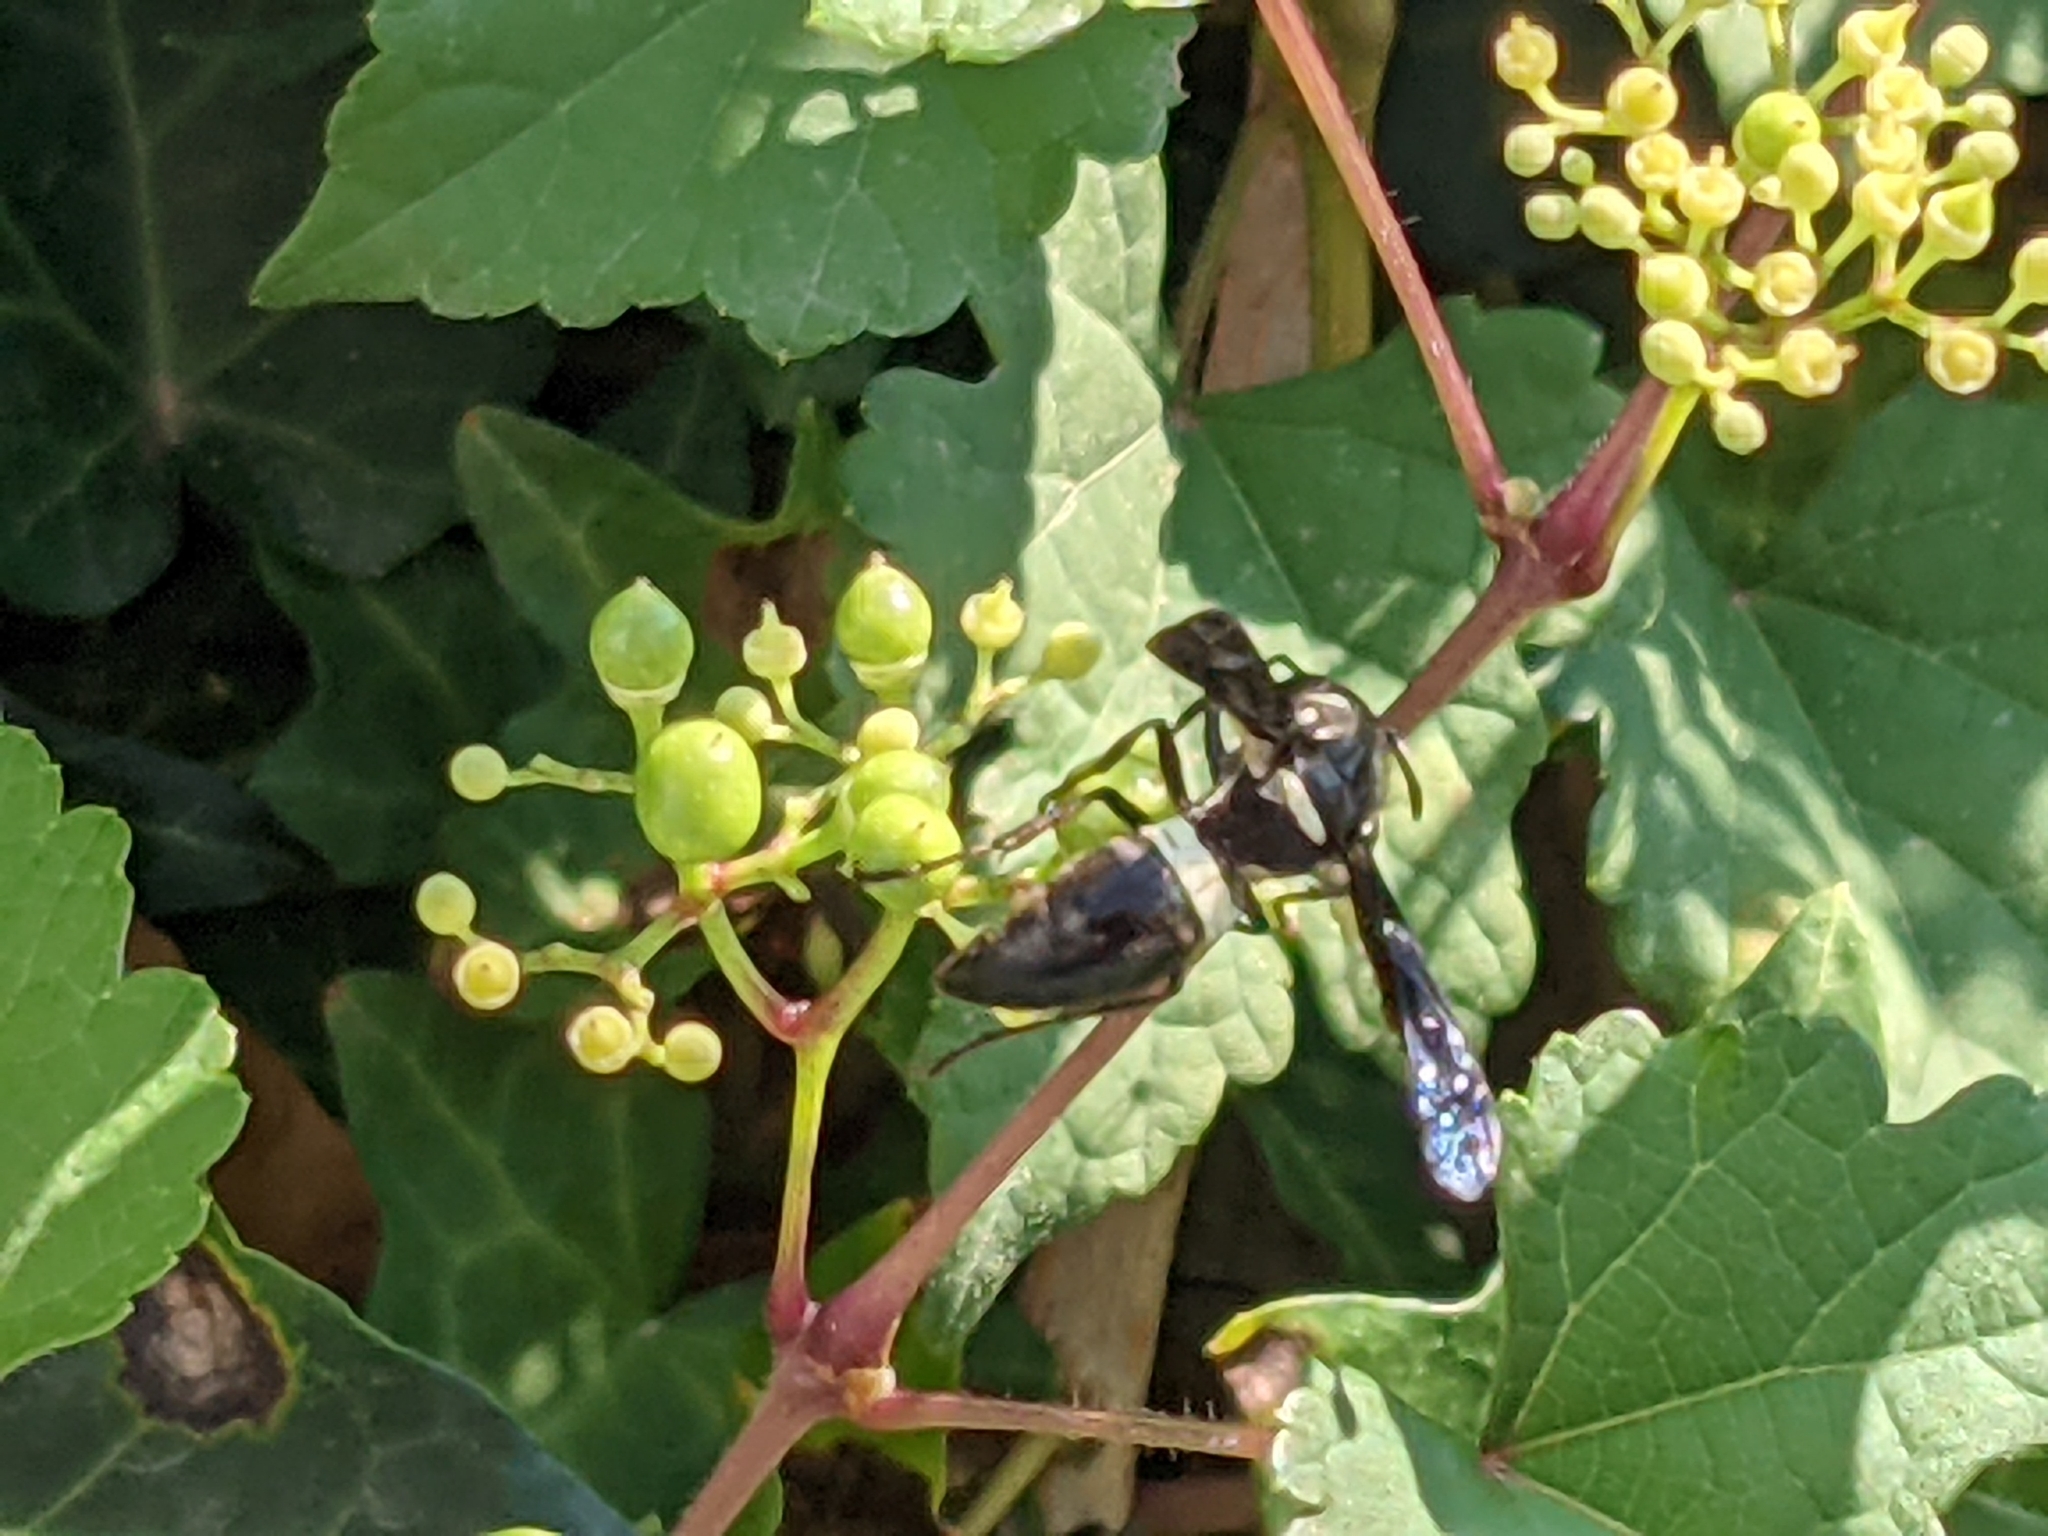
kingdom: Animalia
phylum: Arthropoda
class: Insecta
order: Hymenoptera
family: Eumenidae
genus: Monobia
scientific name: Monobia quadridens
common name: Four-toothed mason wasp
